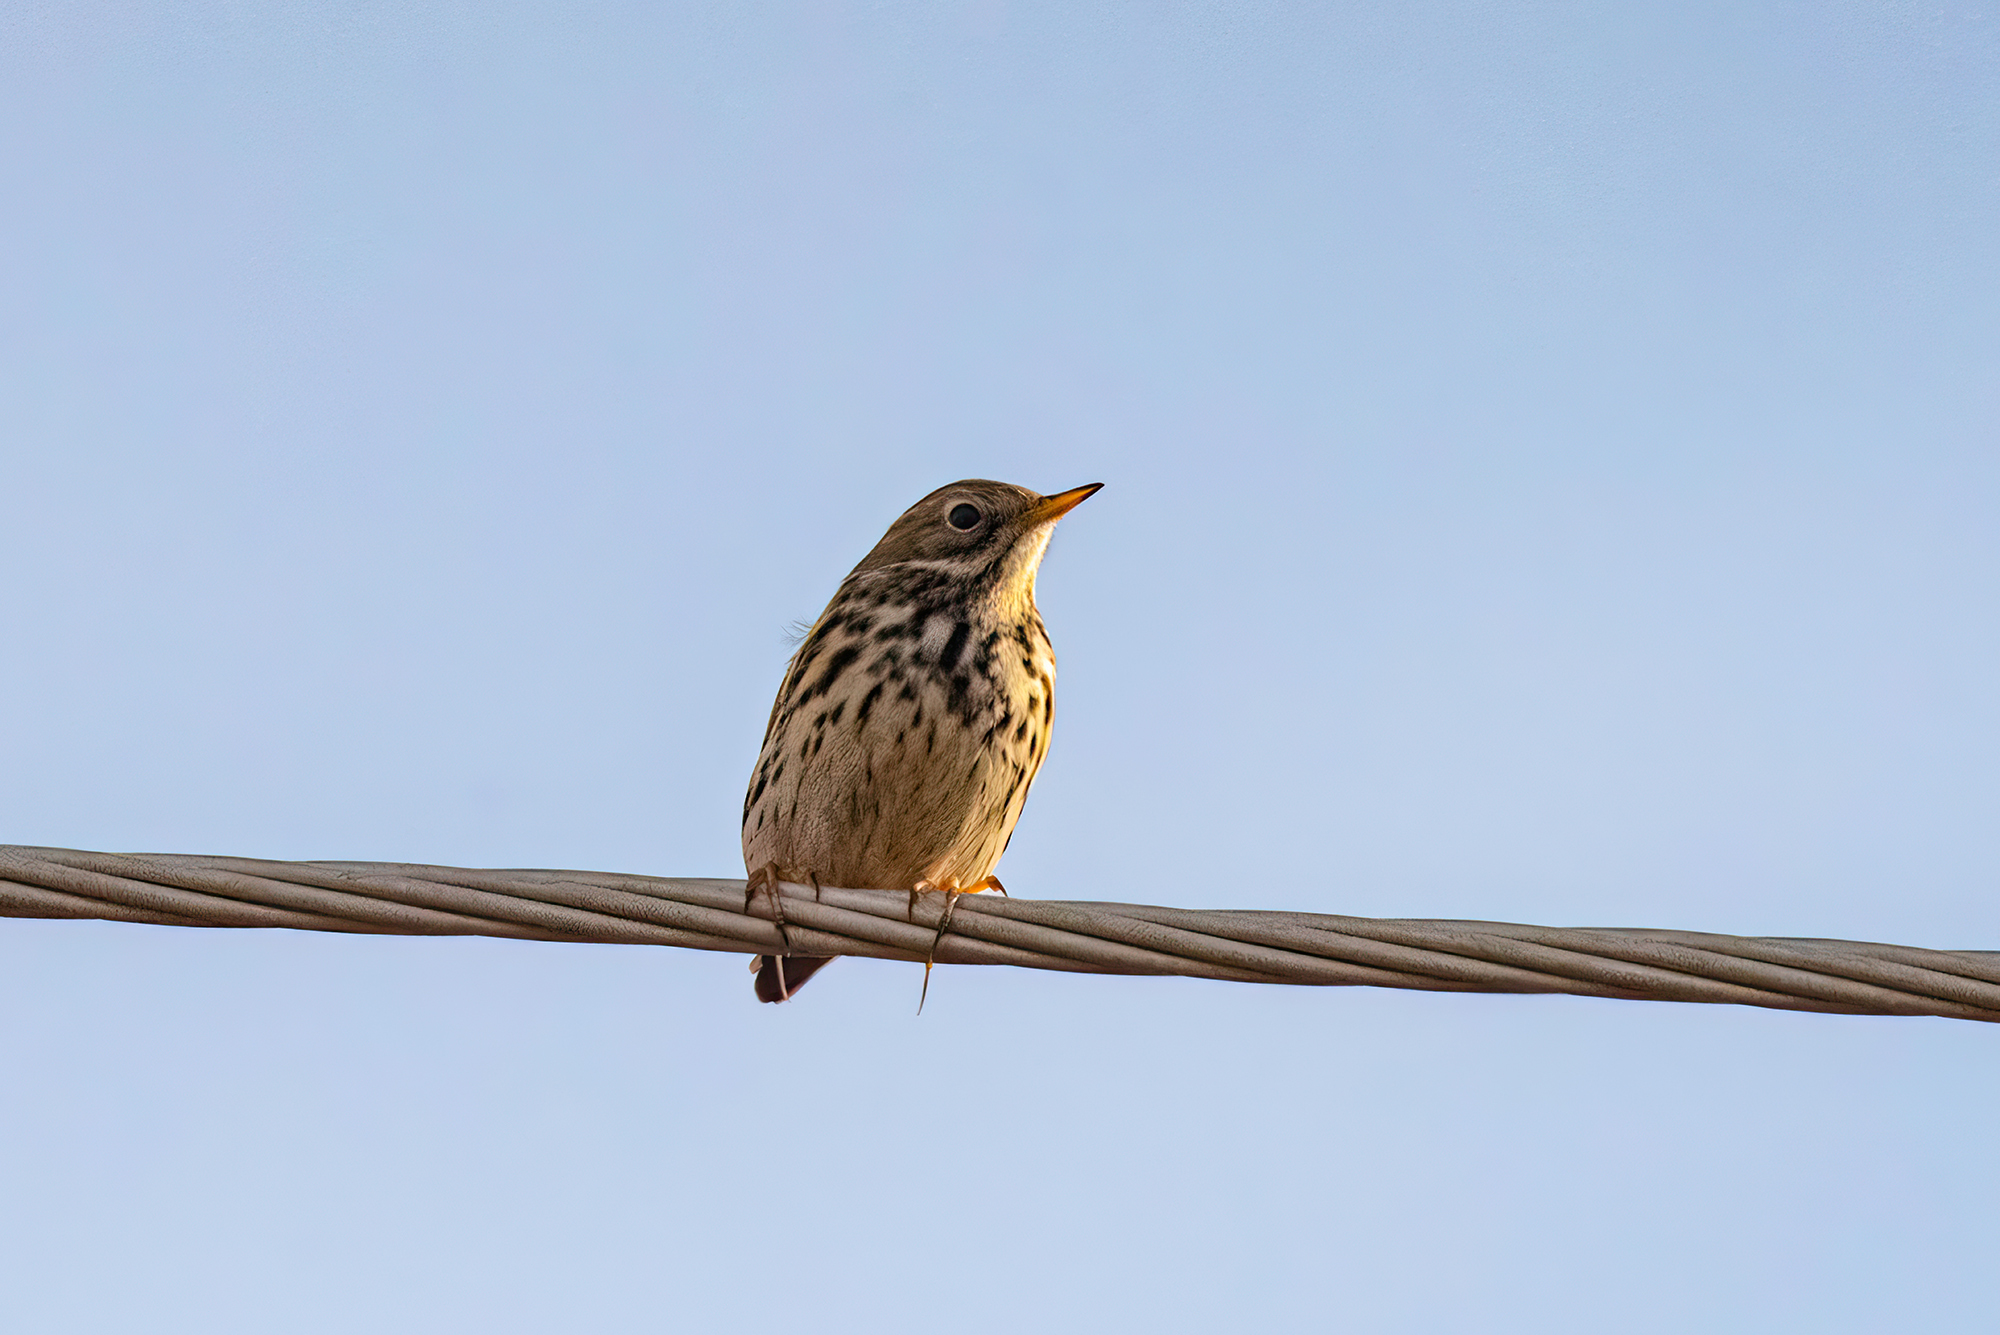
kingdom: Animalia
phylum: Chordata
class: Aves
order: Passeriformes
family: Motacillidae
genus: Anthus
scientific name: Anthus pratensis
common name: Meadow pipit
